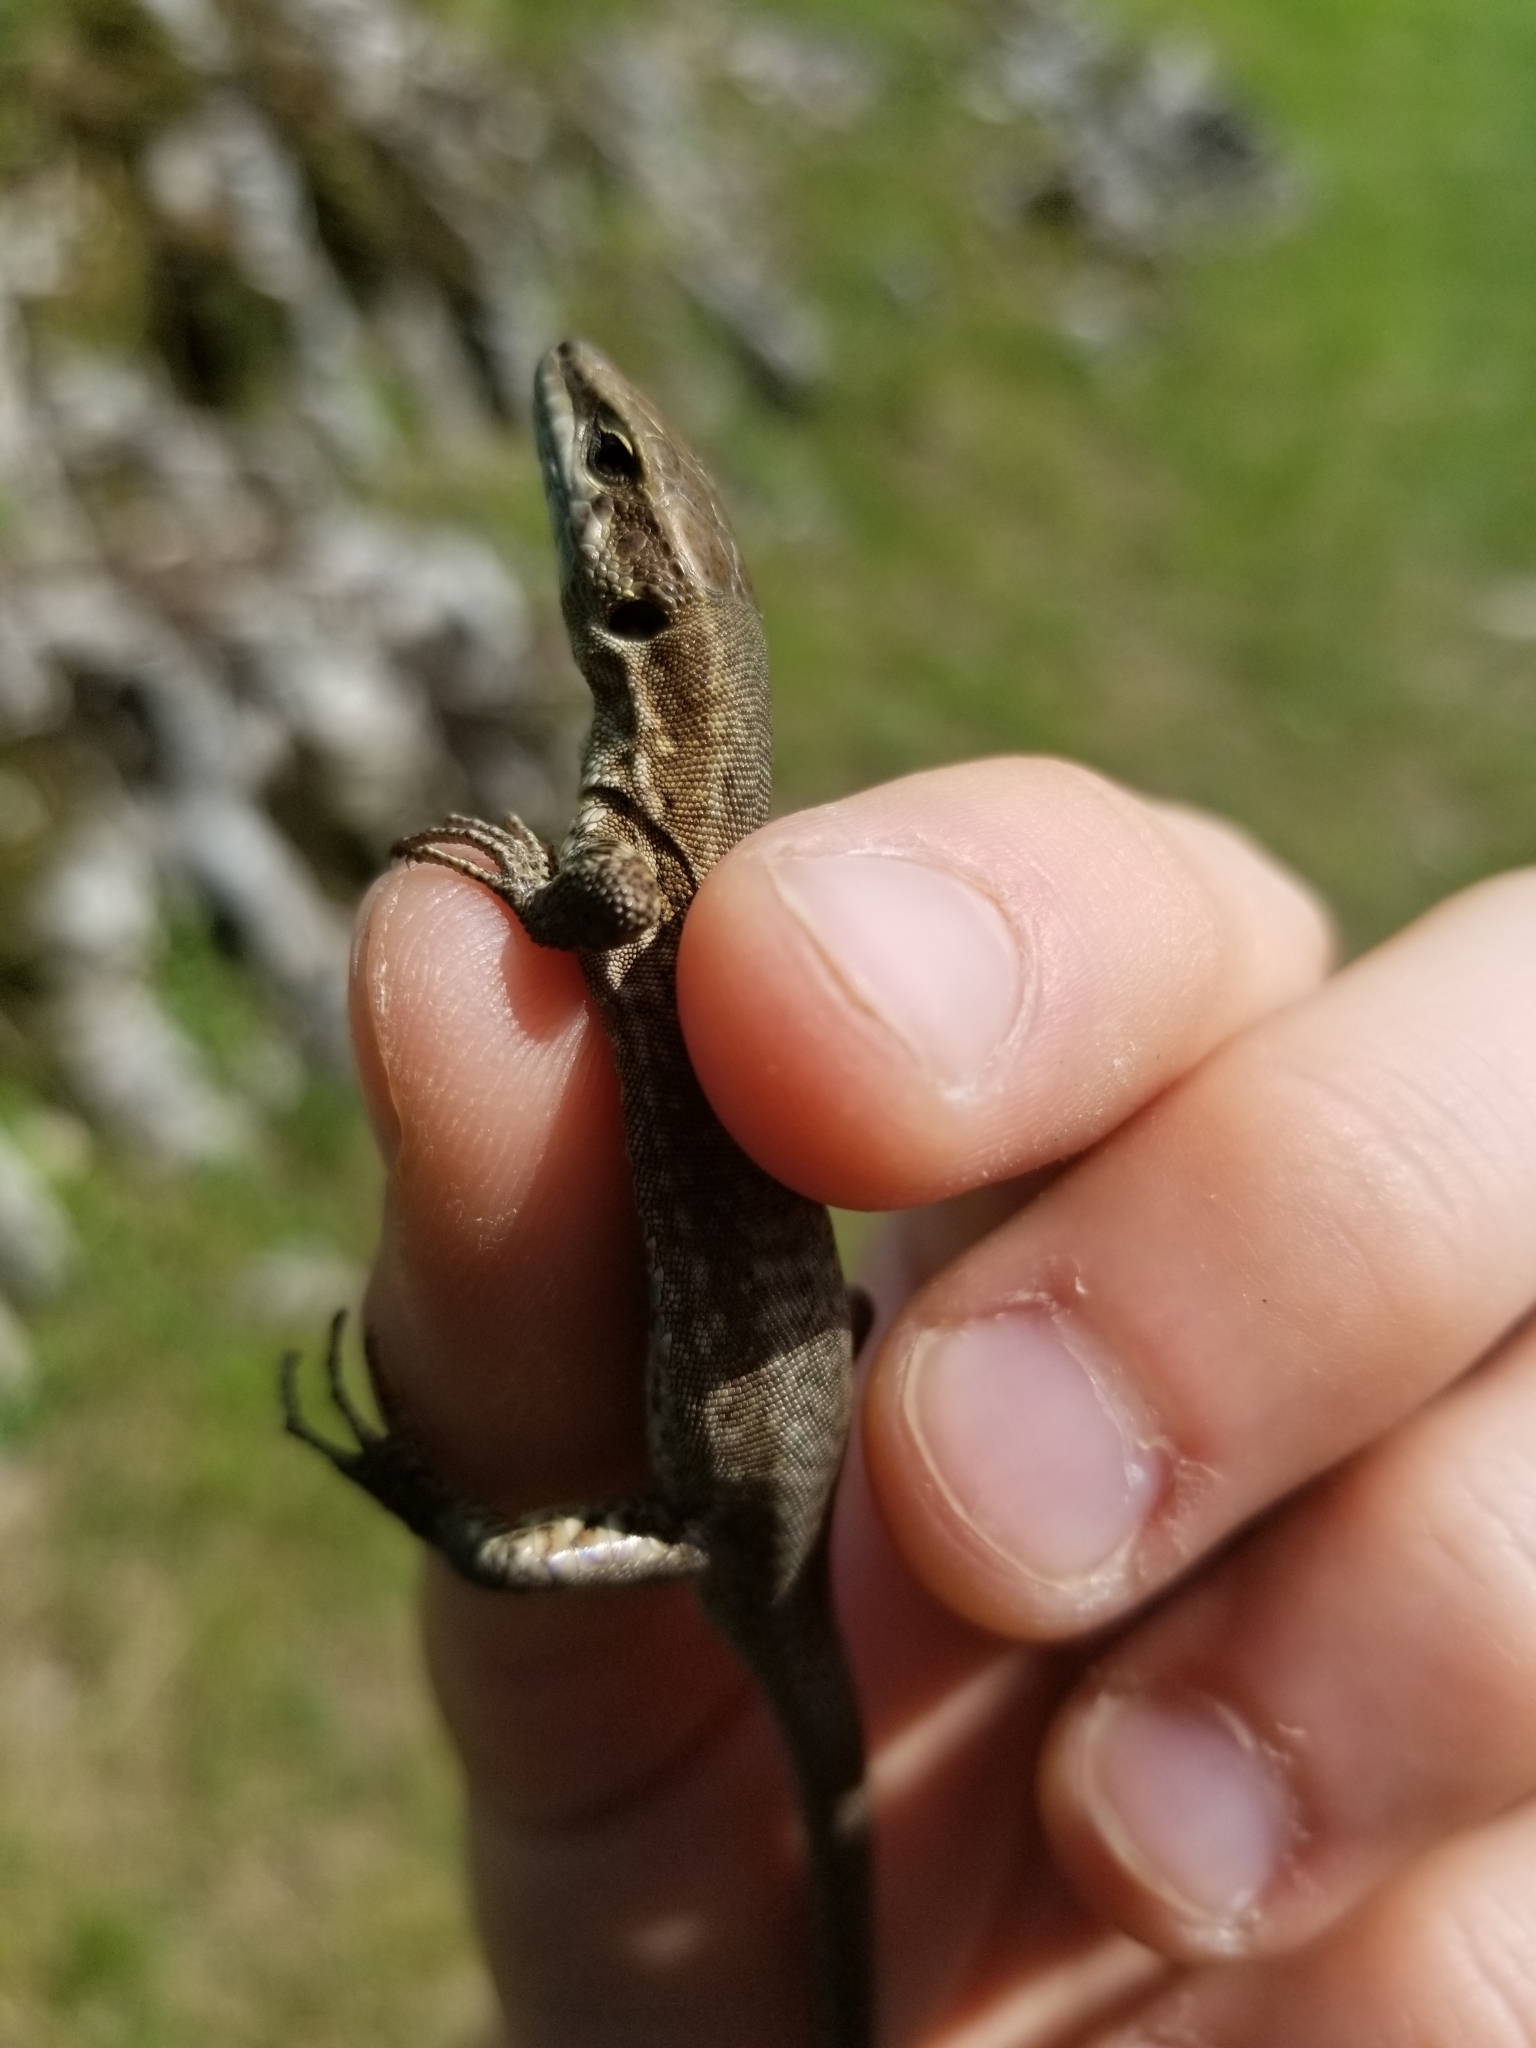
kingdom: Animalia
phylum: Chordata
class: Squamata
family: Lacertidae
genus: Podarcis
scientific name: Podarcis muralis
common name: Common wall lizard
